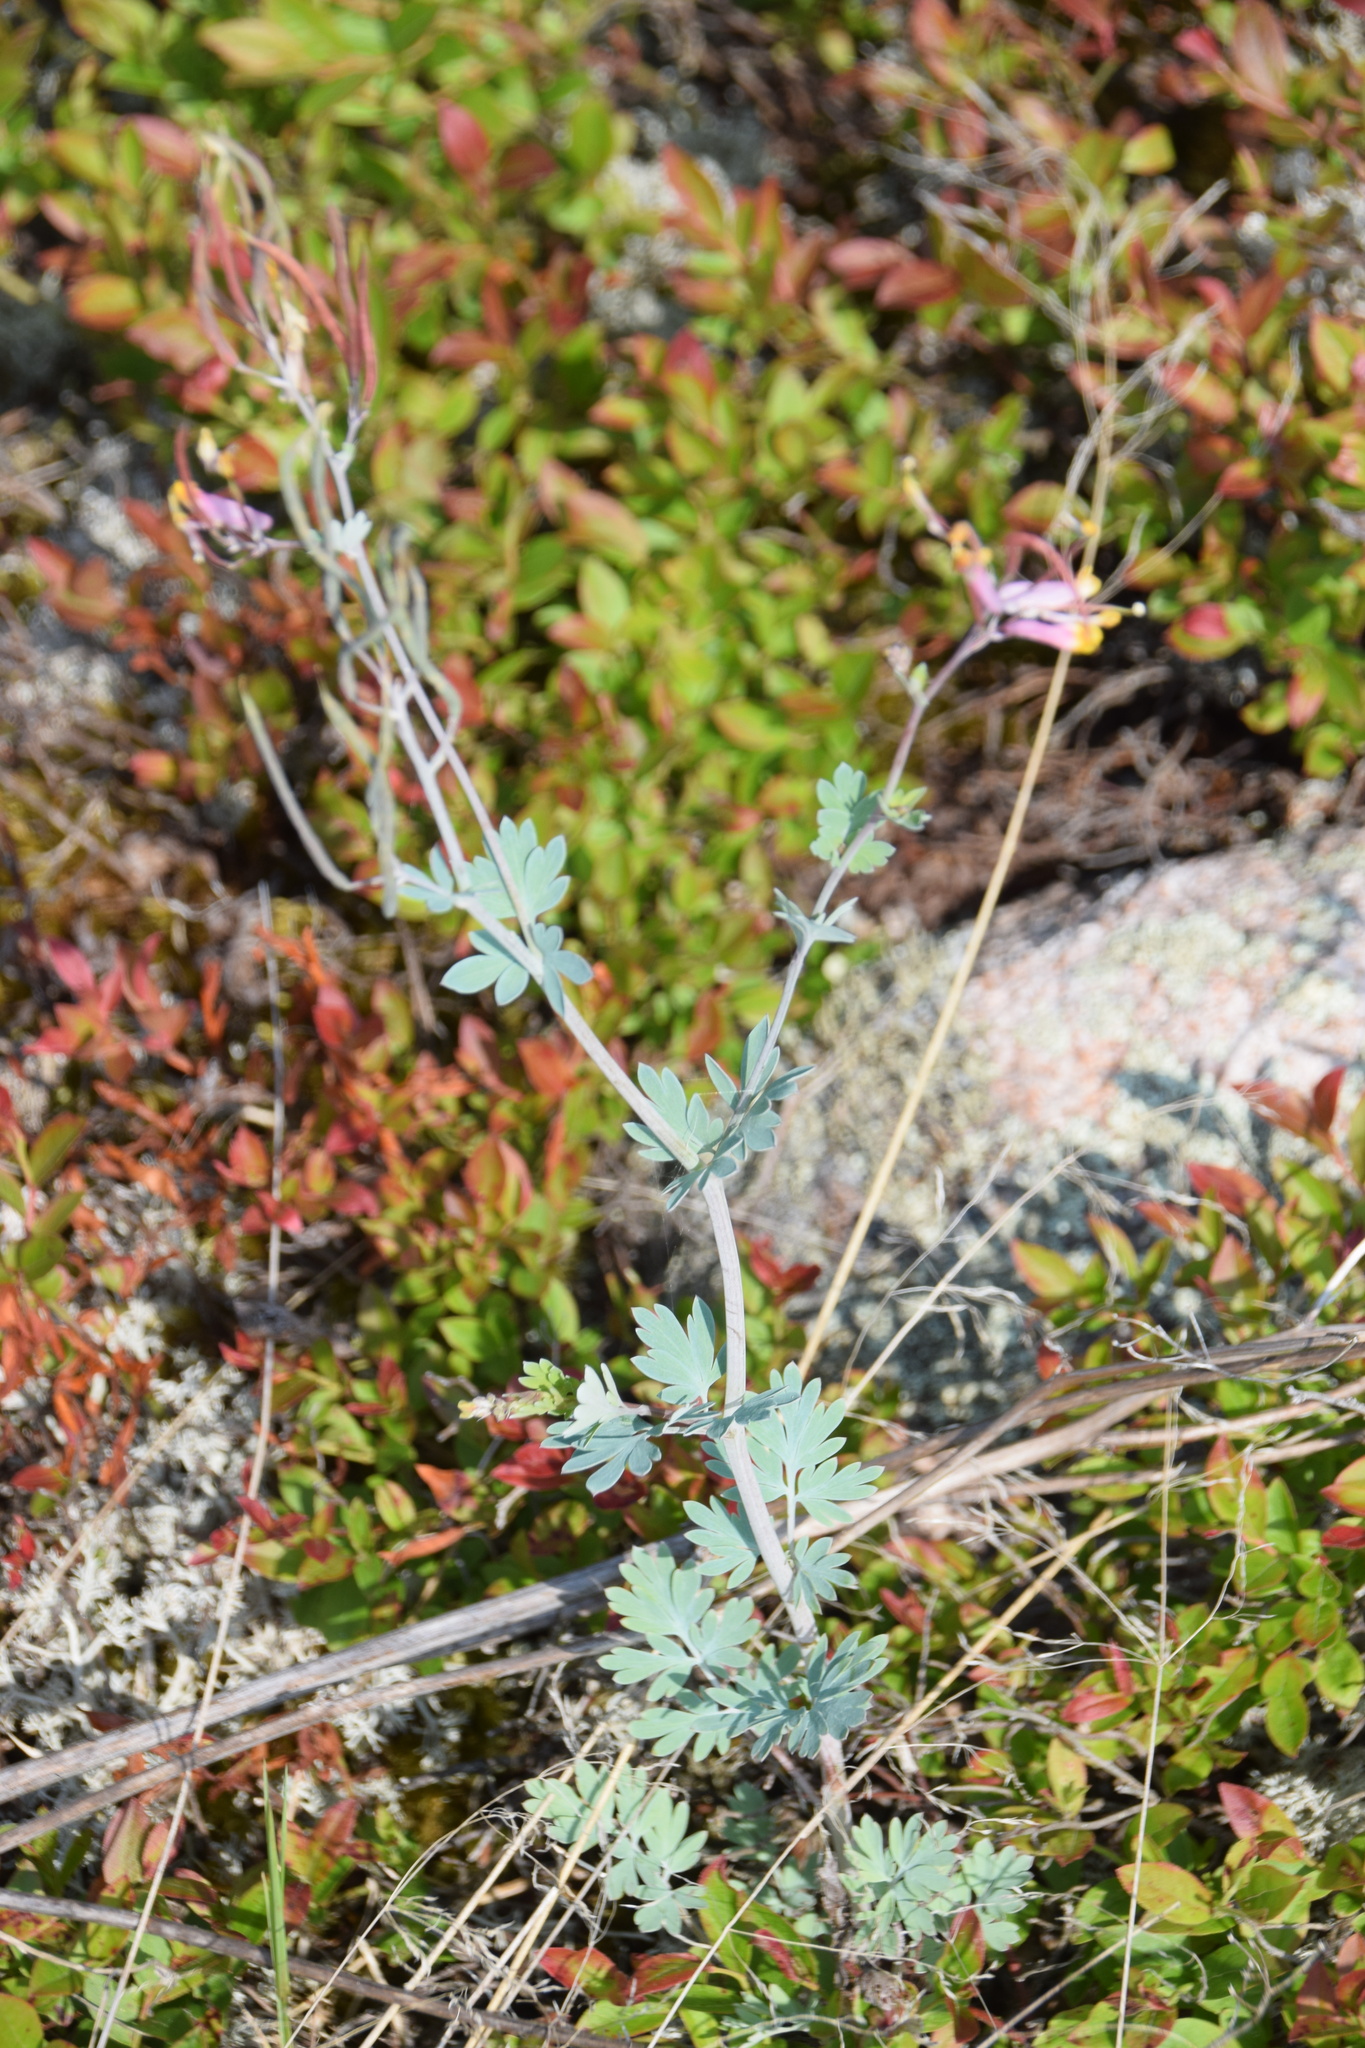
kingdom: Plantae
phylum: Tracheophyta
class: Magnoliopsida
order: Ranunculales
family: Papaveraceae
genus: Capnoides
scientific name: Capnoides sempervirens
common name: Rock harlequin
